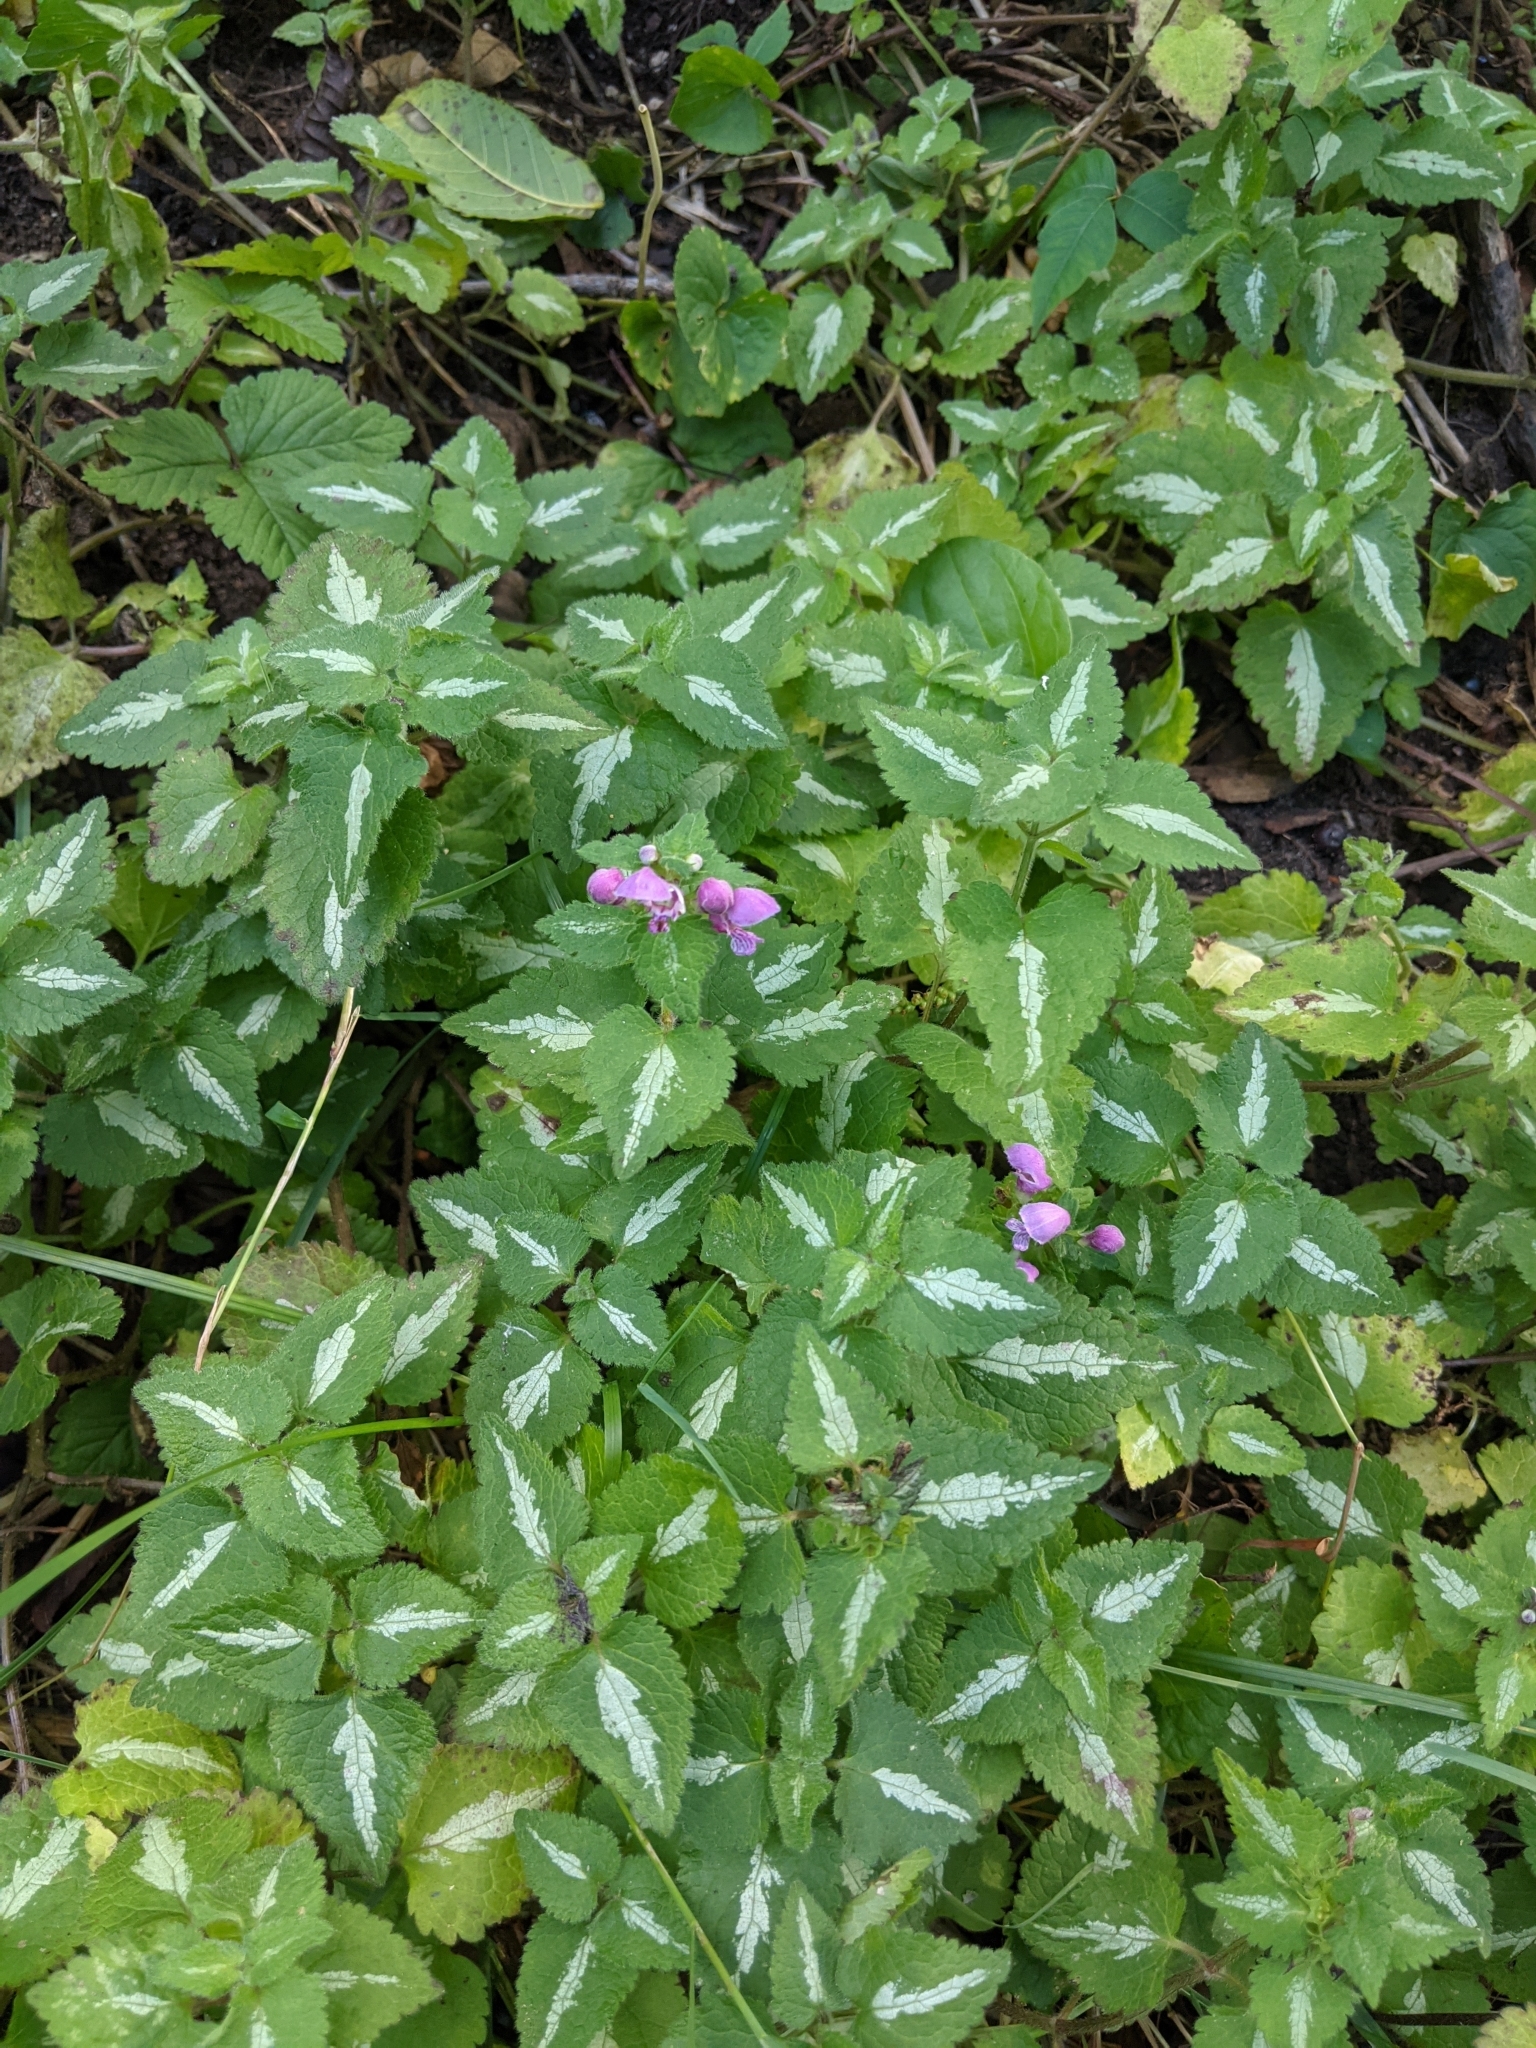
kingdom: Plantae
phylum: Tracheophyta
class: Magnoliopsida
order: Lamiales
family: Lamiaceae
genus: Lamium
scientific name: Lamium maculatum
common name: Spotted dead-nettle
